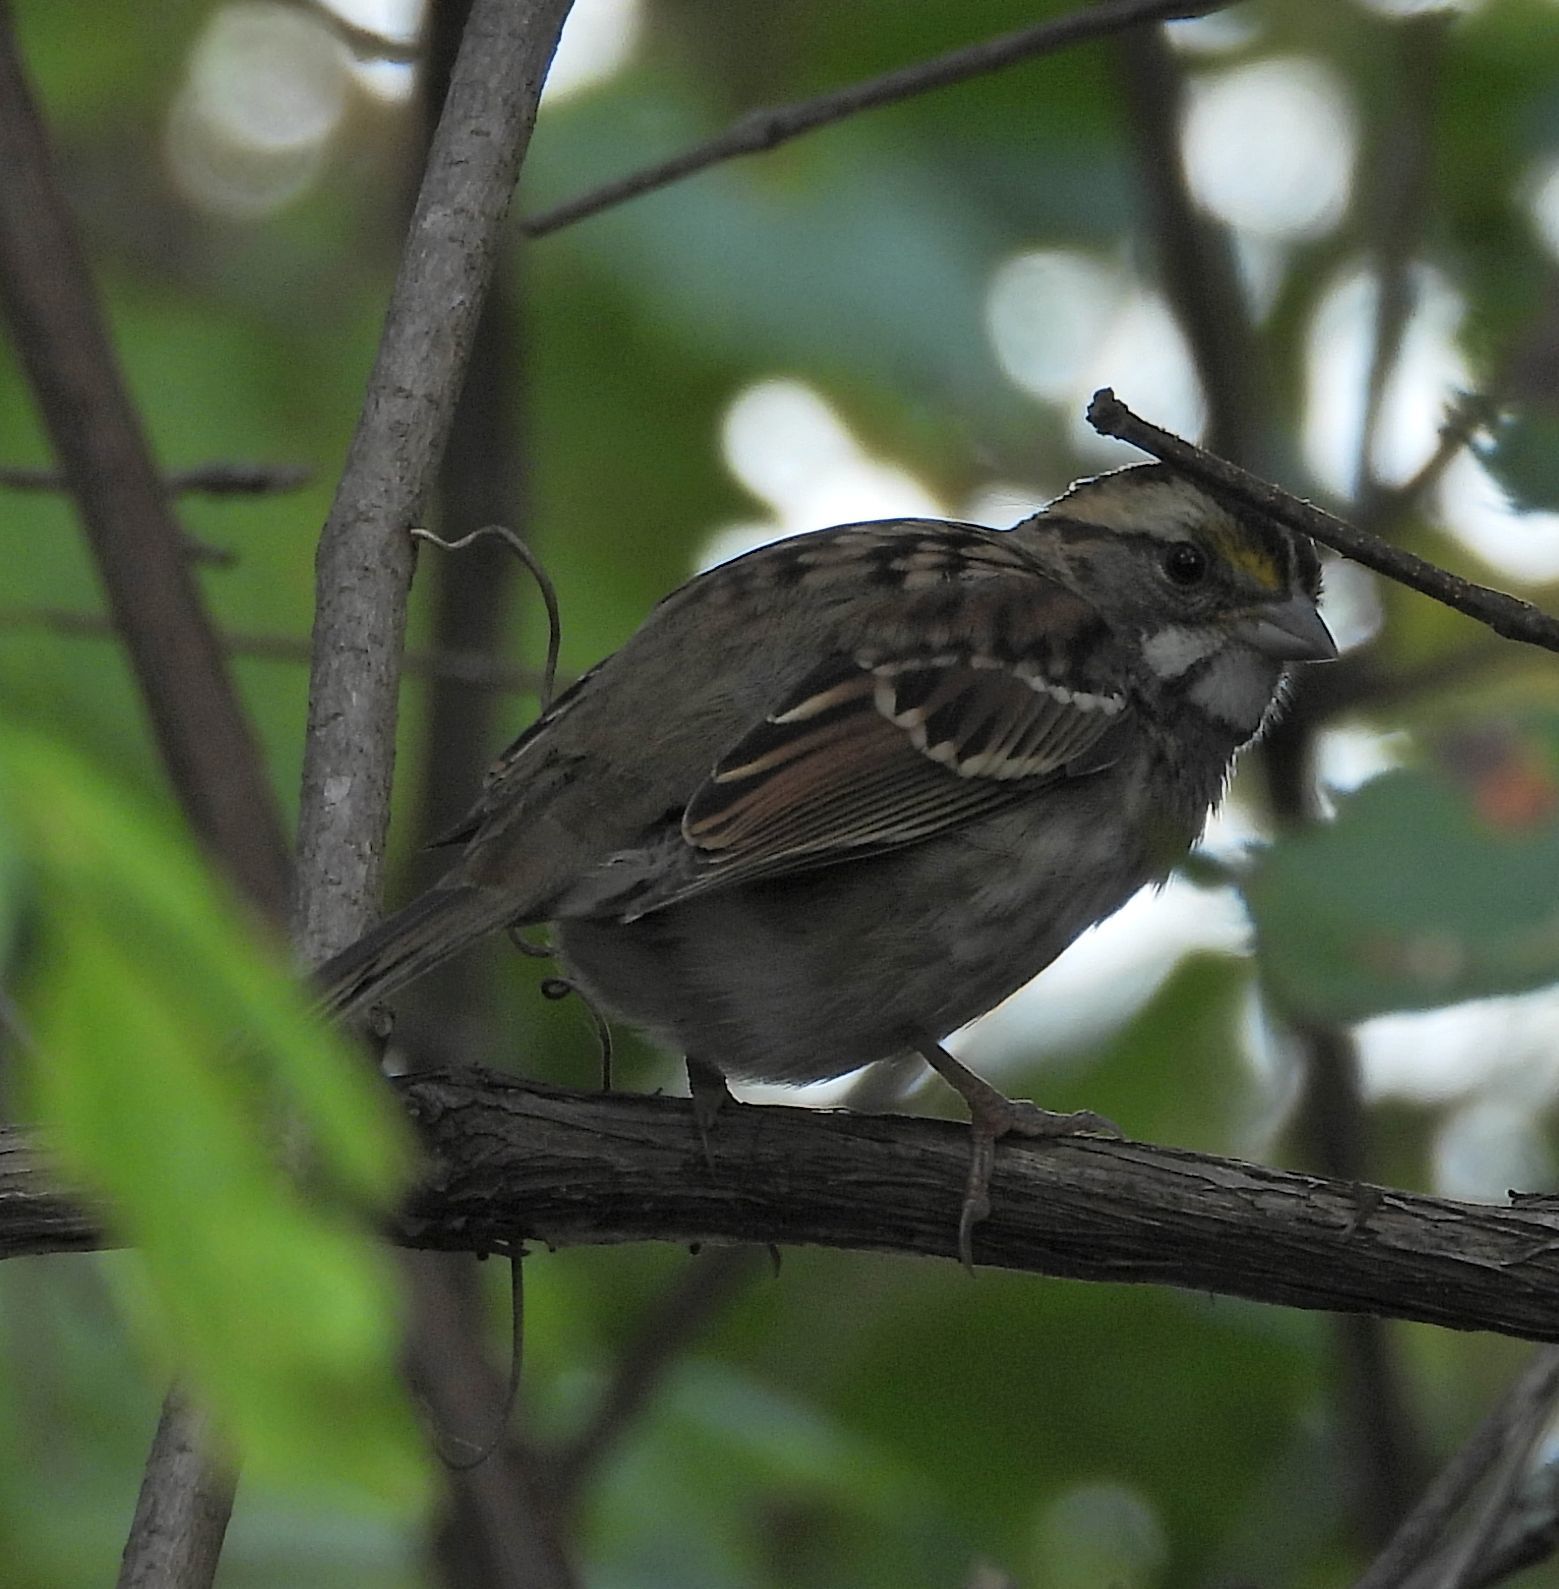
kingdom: Animalia
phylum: Chordata
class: Aves
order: Passeriformes
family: Passerellidae
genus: Zonotrichia
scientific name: Zonotrichia albicollis
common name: White-throated sparrow
